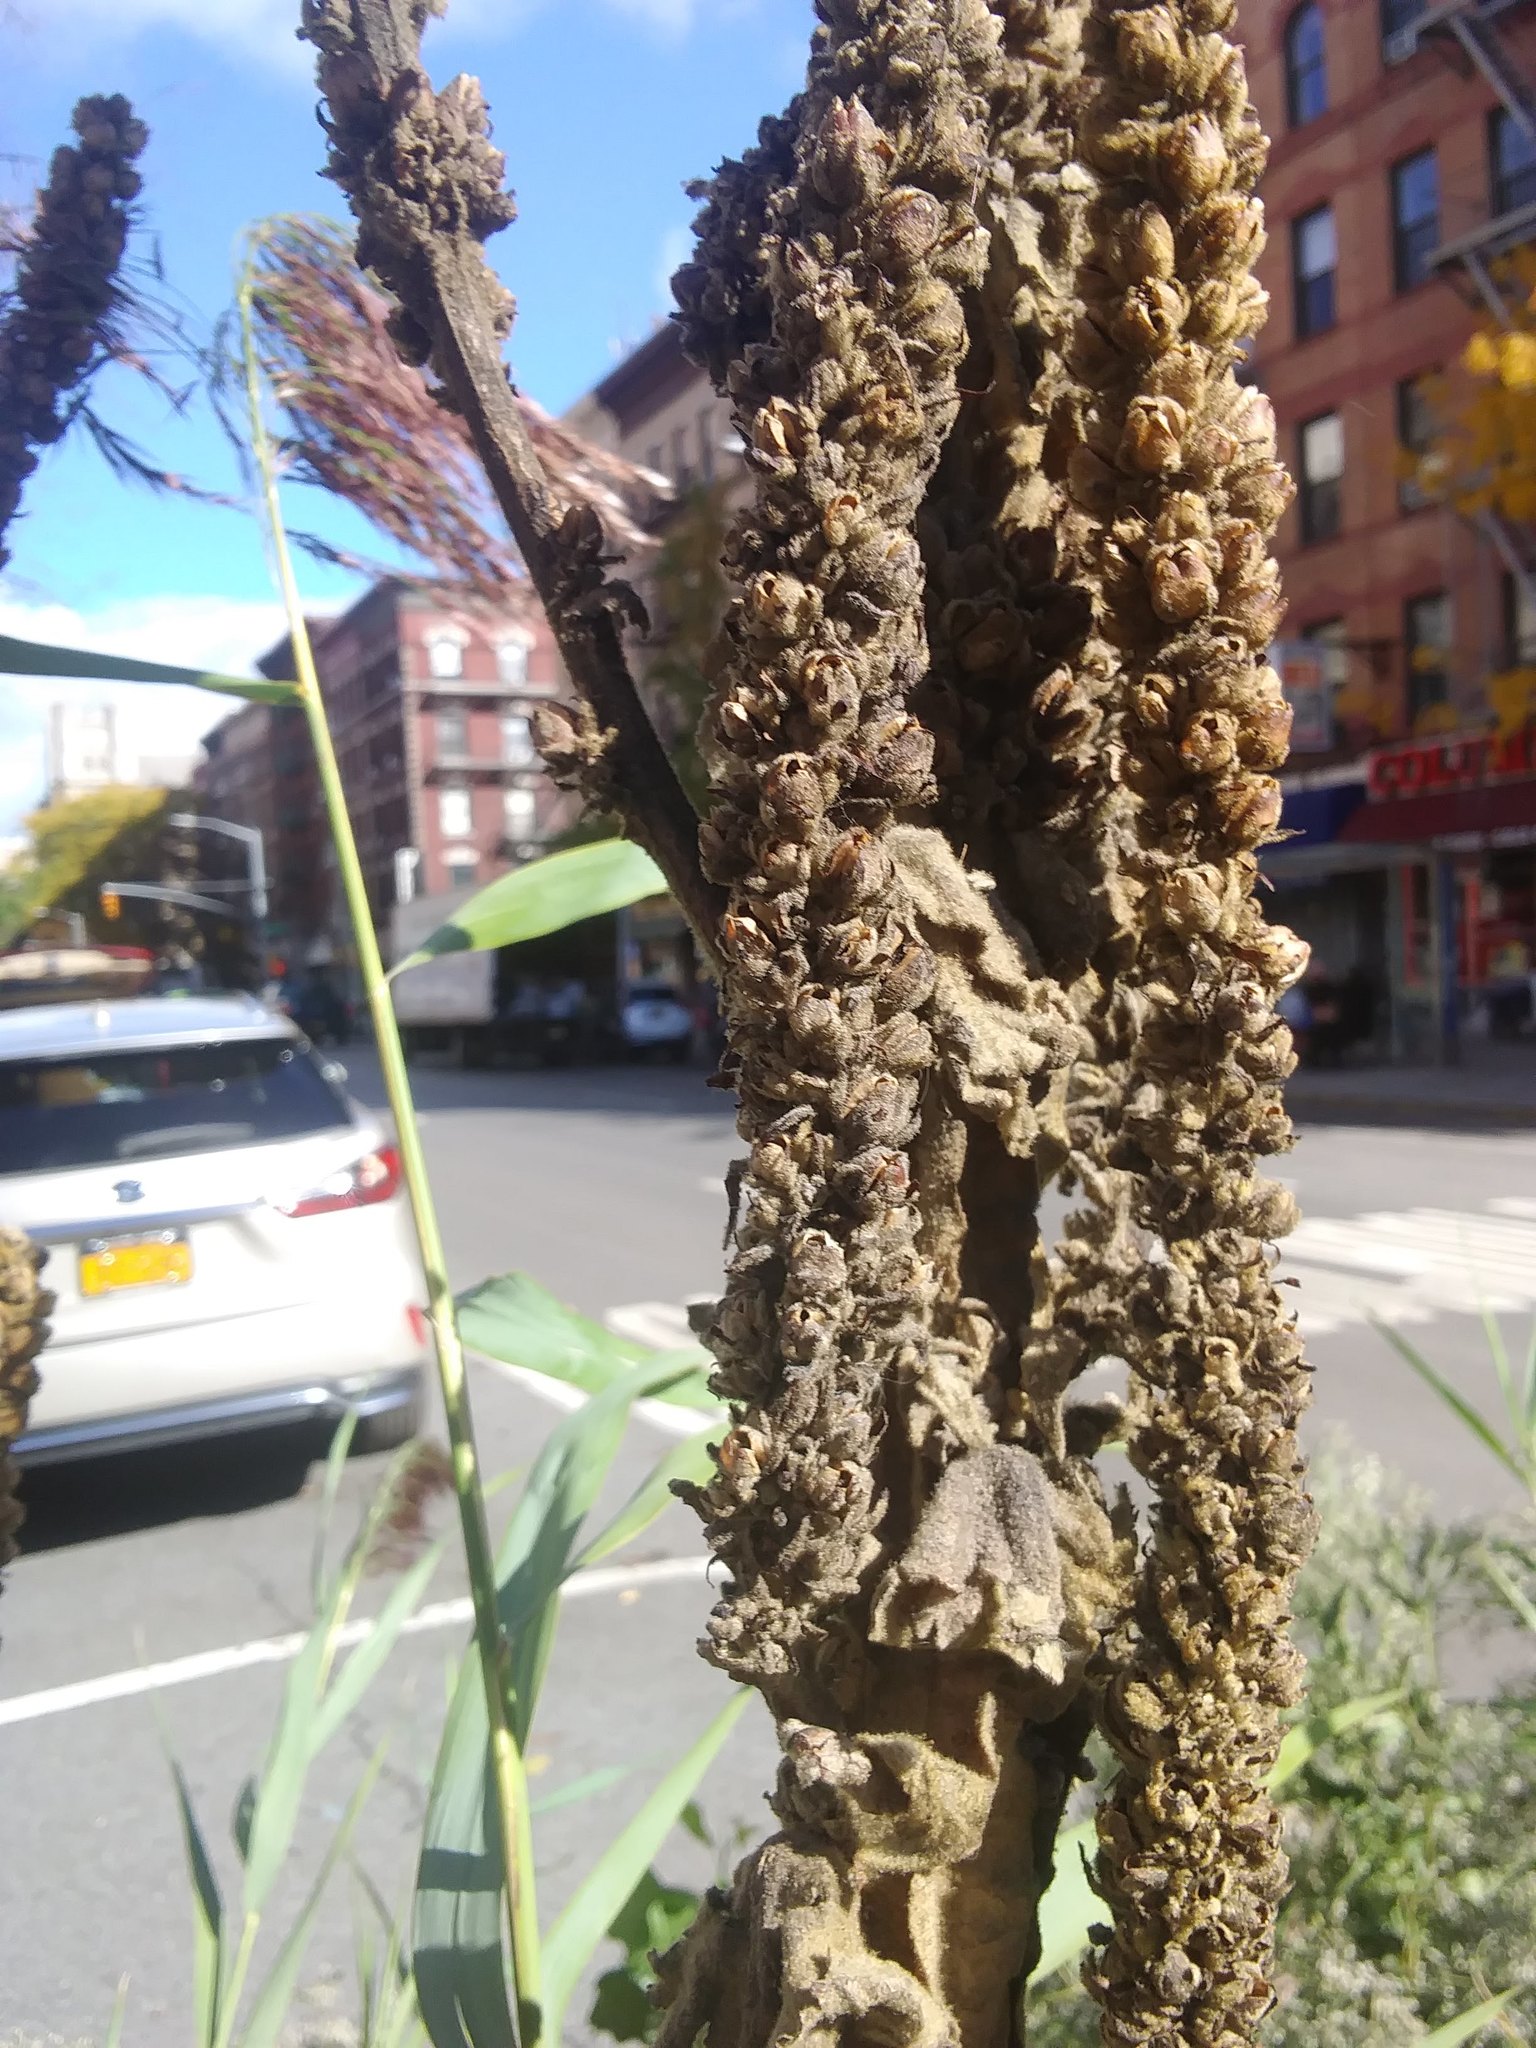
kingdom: Plantae
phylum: Tracheophyta
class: Magnoliopsida
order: Lamiales
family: Scrophulariaceae
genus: Verbascum
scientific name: Verbascum thapsus
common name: Common mullein
